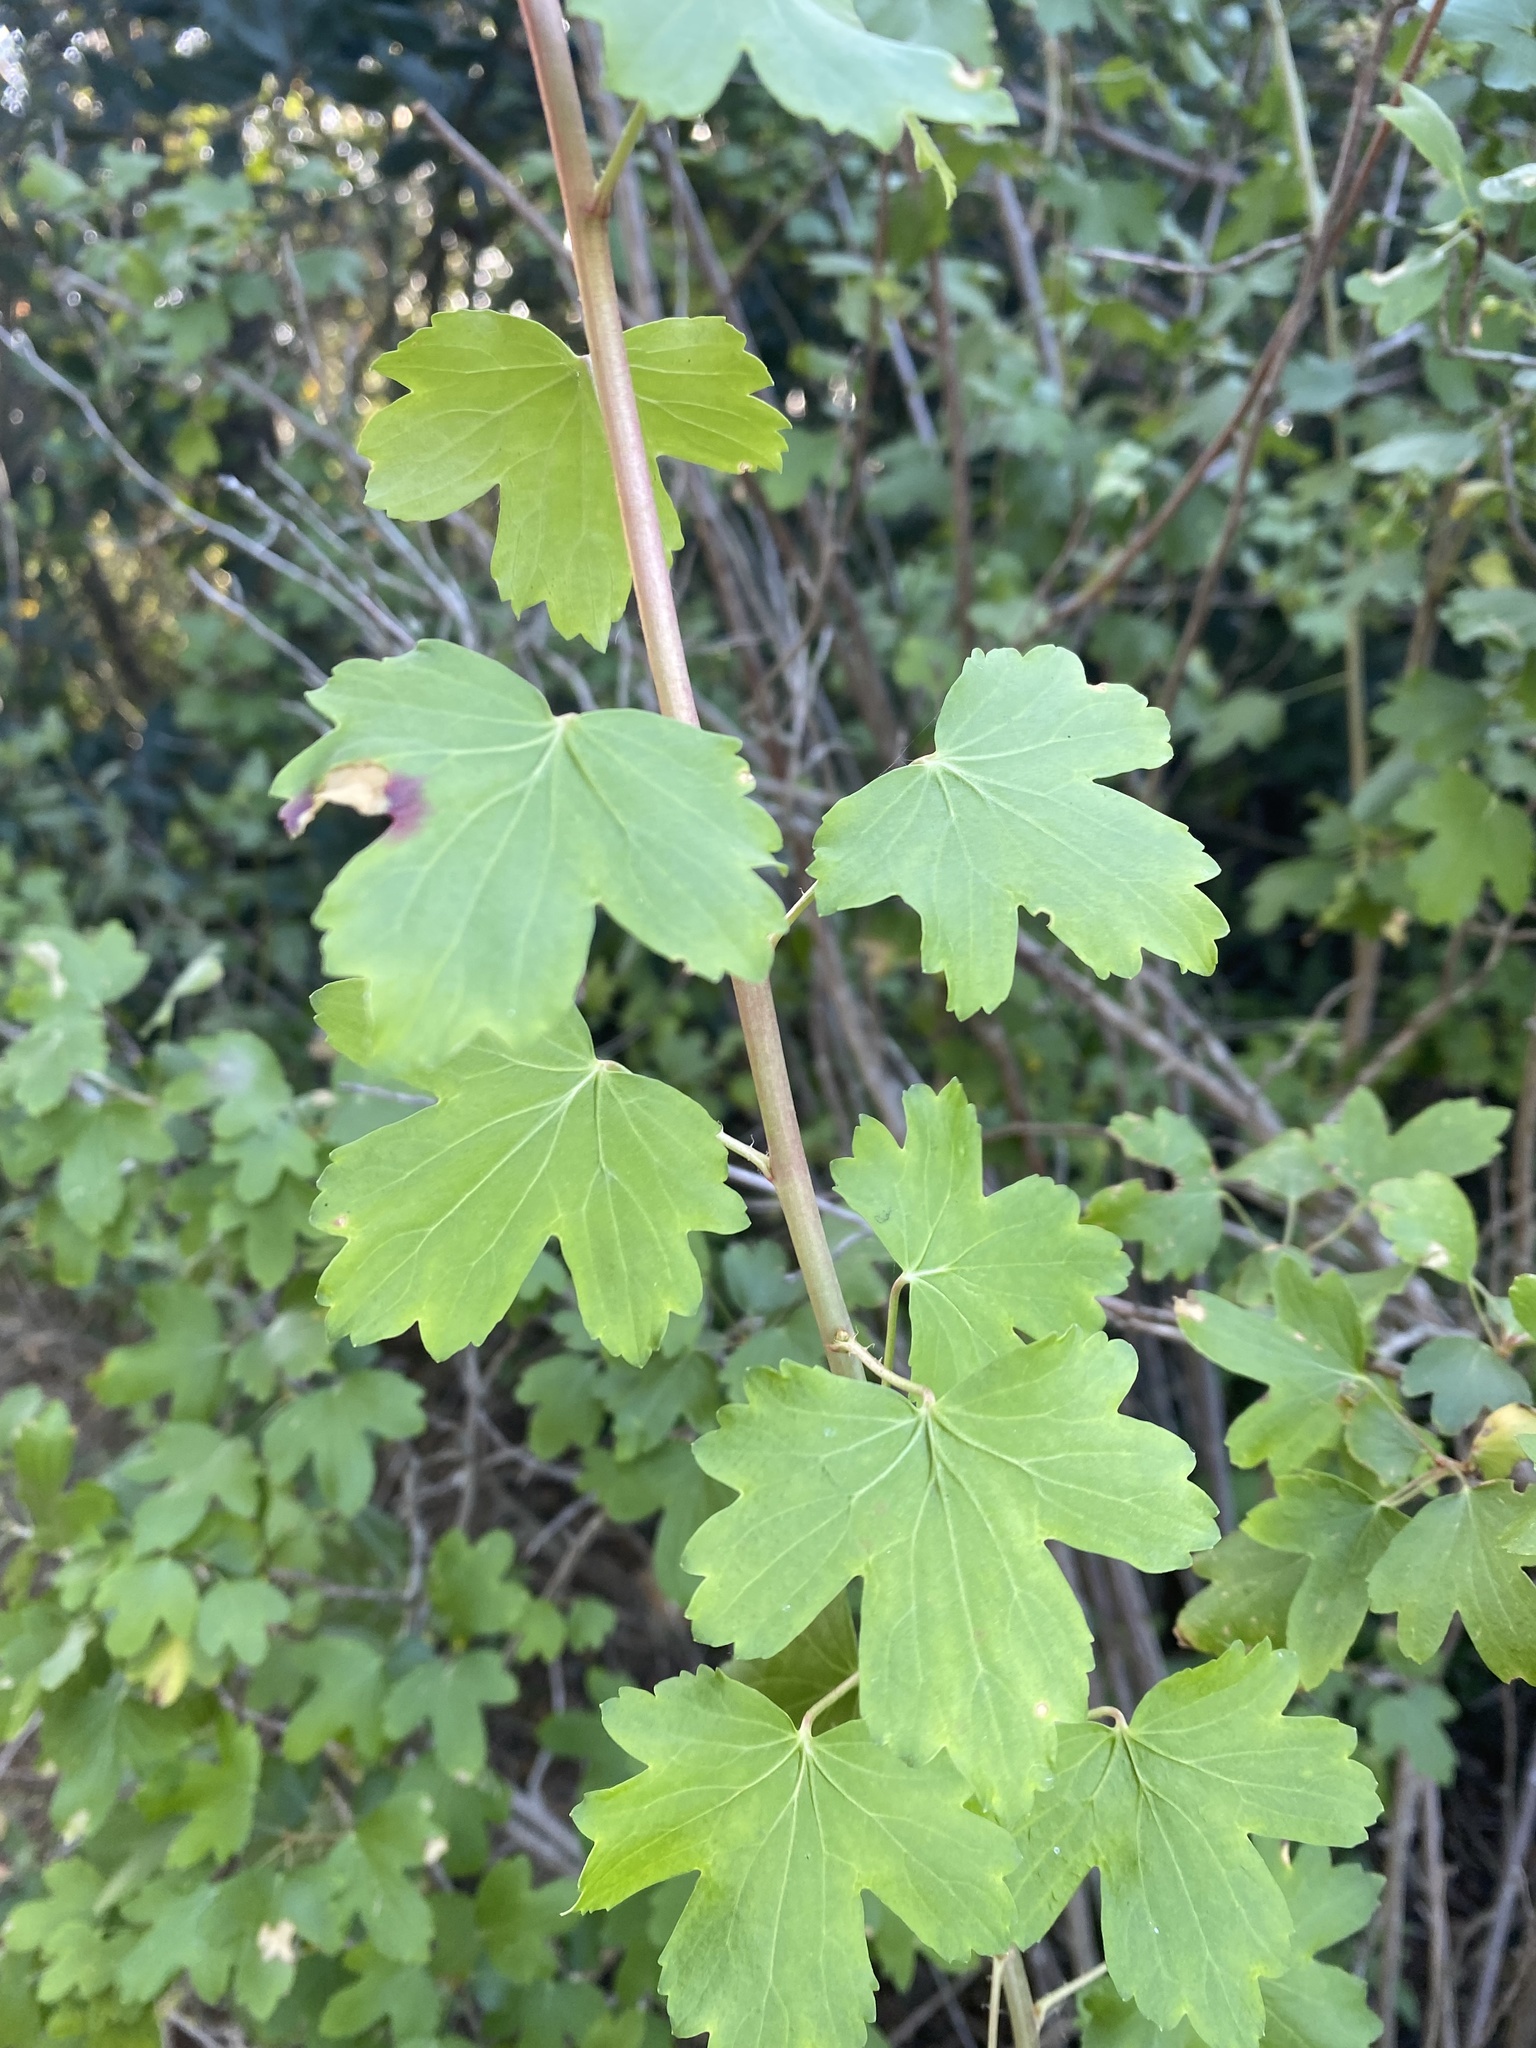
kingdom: Plantae
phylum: Tracheophyta
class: Magnoliopsida
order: Saxifragales
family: Grossulariaceae
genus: Ribes
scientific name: Ribes aureum
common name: Golden currant
